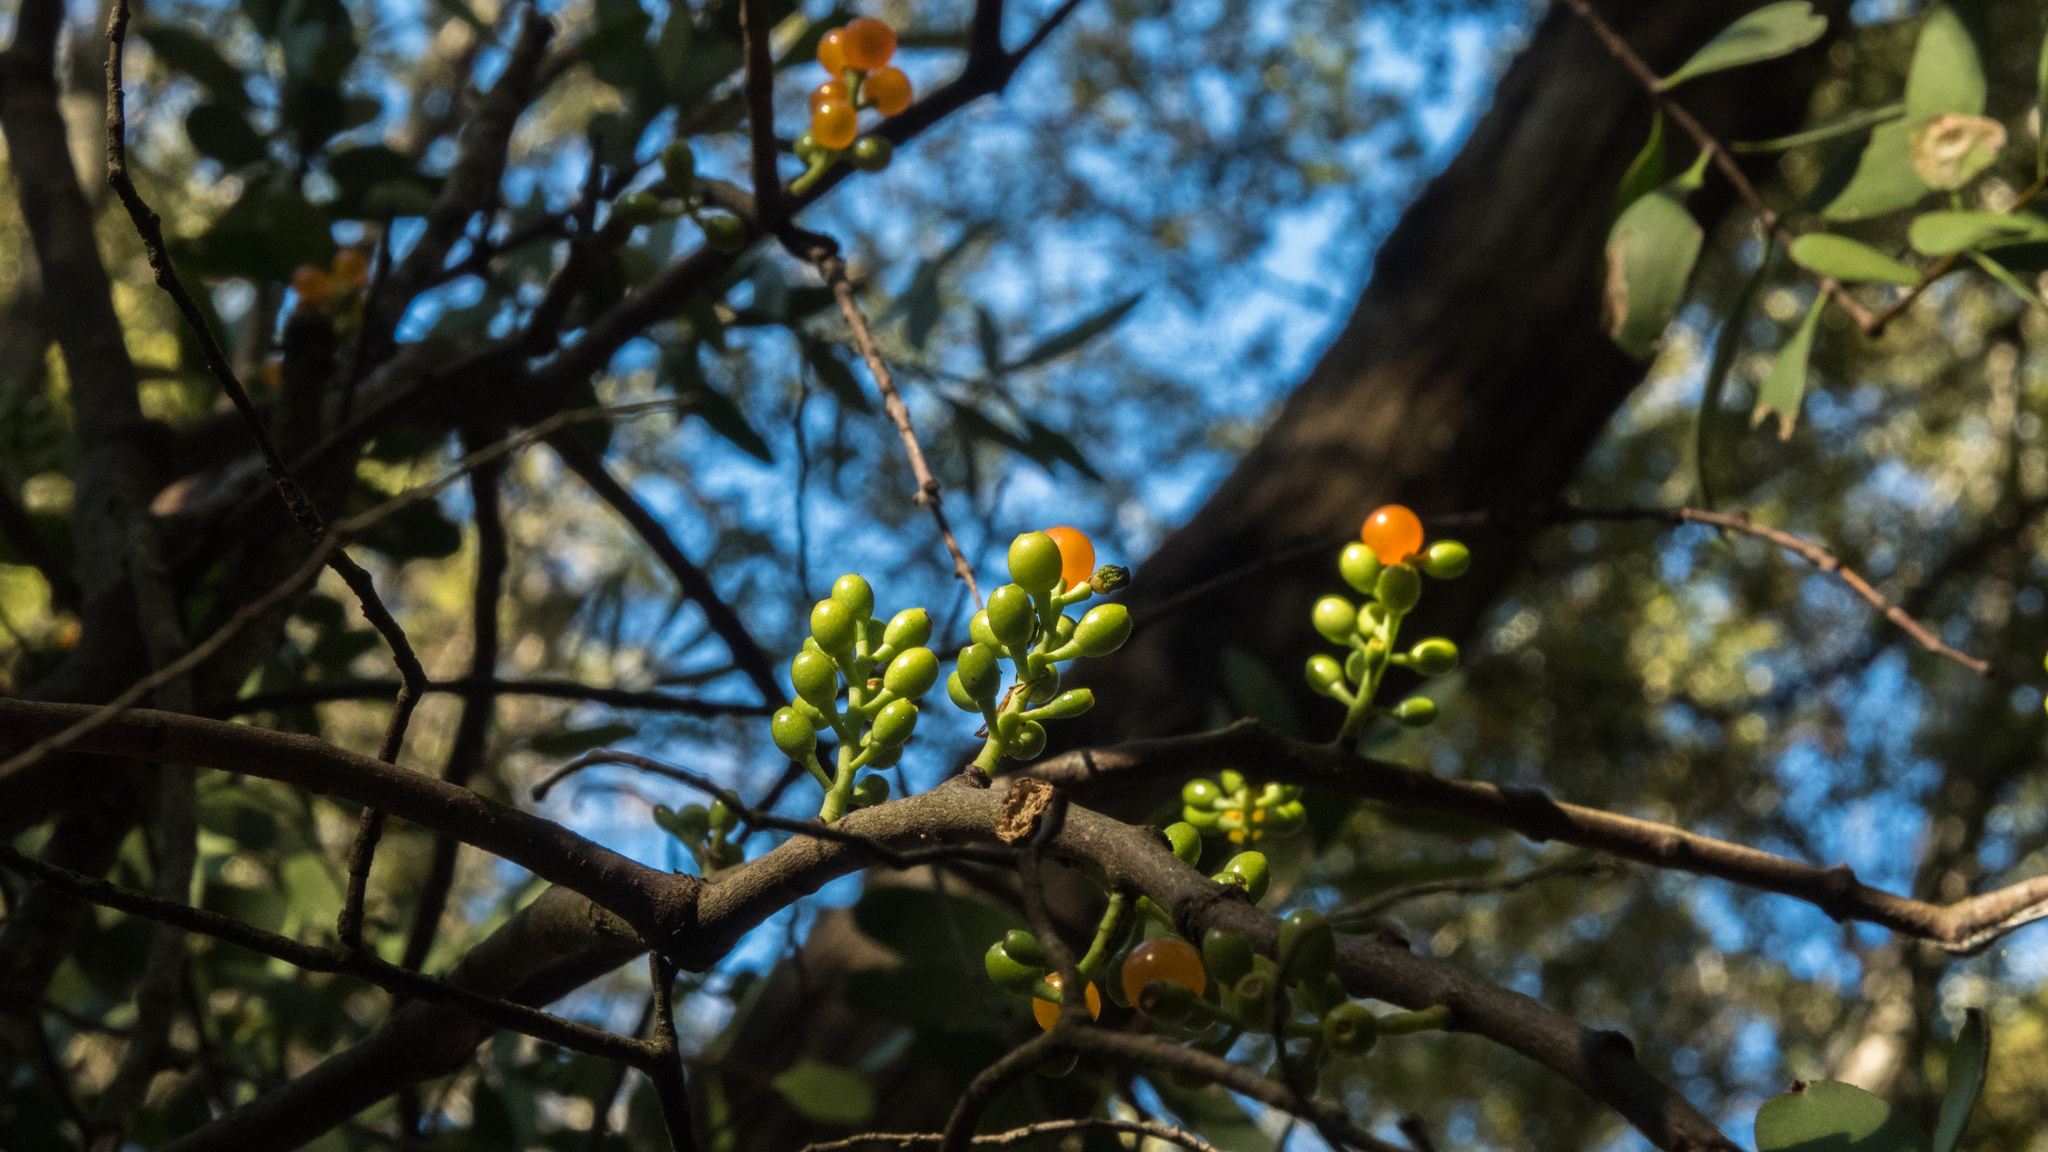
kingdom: Plantae
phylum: Tracheophyta
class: Magnoliopsida
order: Santalales
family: Loranthaceae
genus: Alepis
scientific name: Alepis flavida
